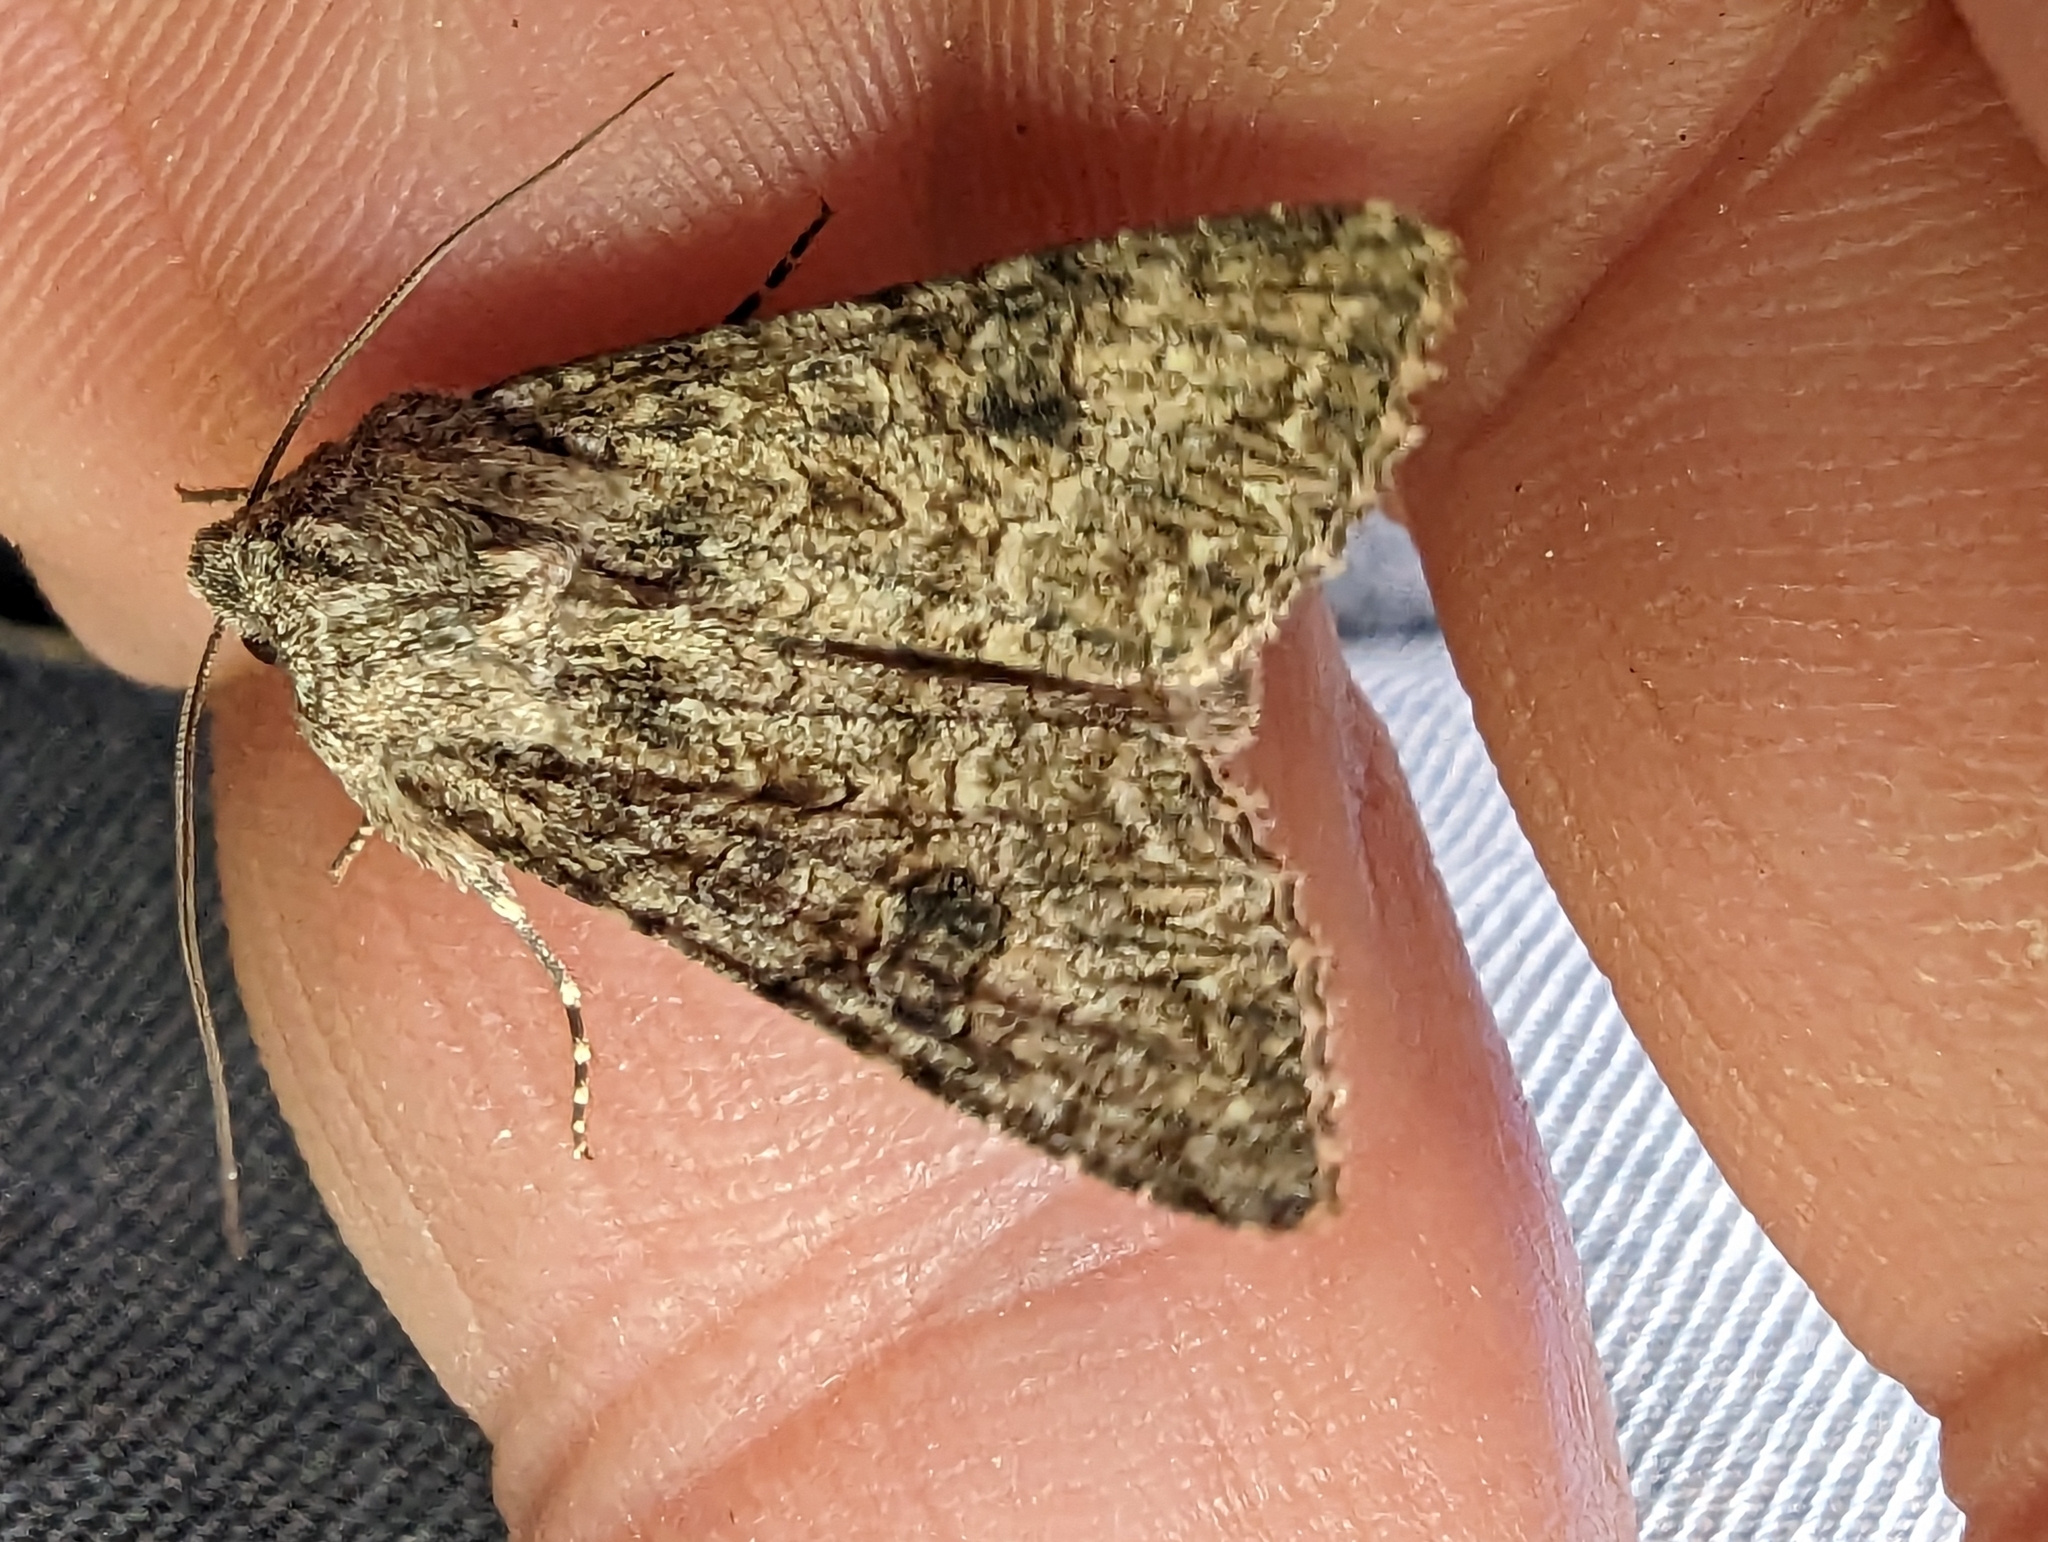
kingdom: Animalia
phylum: Arthropoda
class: Insecta
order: Lepidoptera
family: Noctuidae
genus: Anarta
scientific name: Anarta trifolii
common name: Clover cutworm moth
